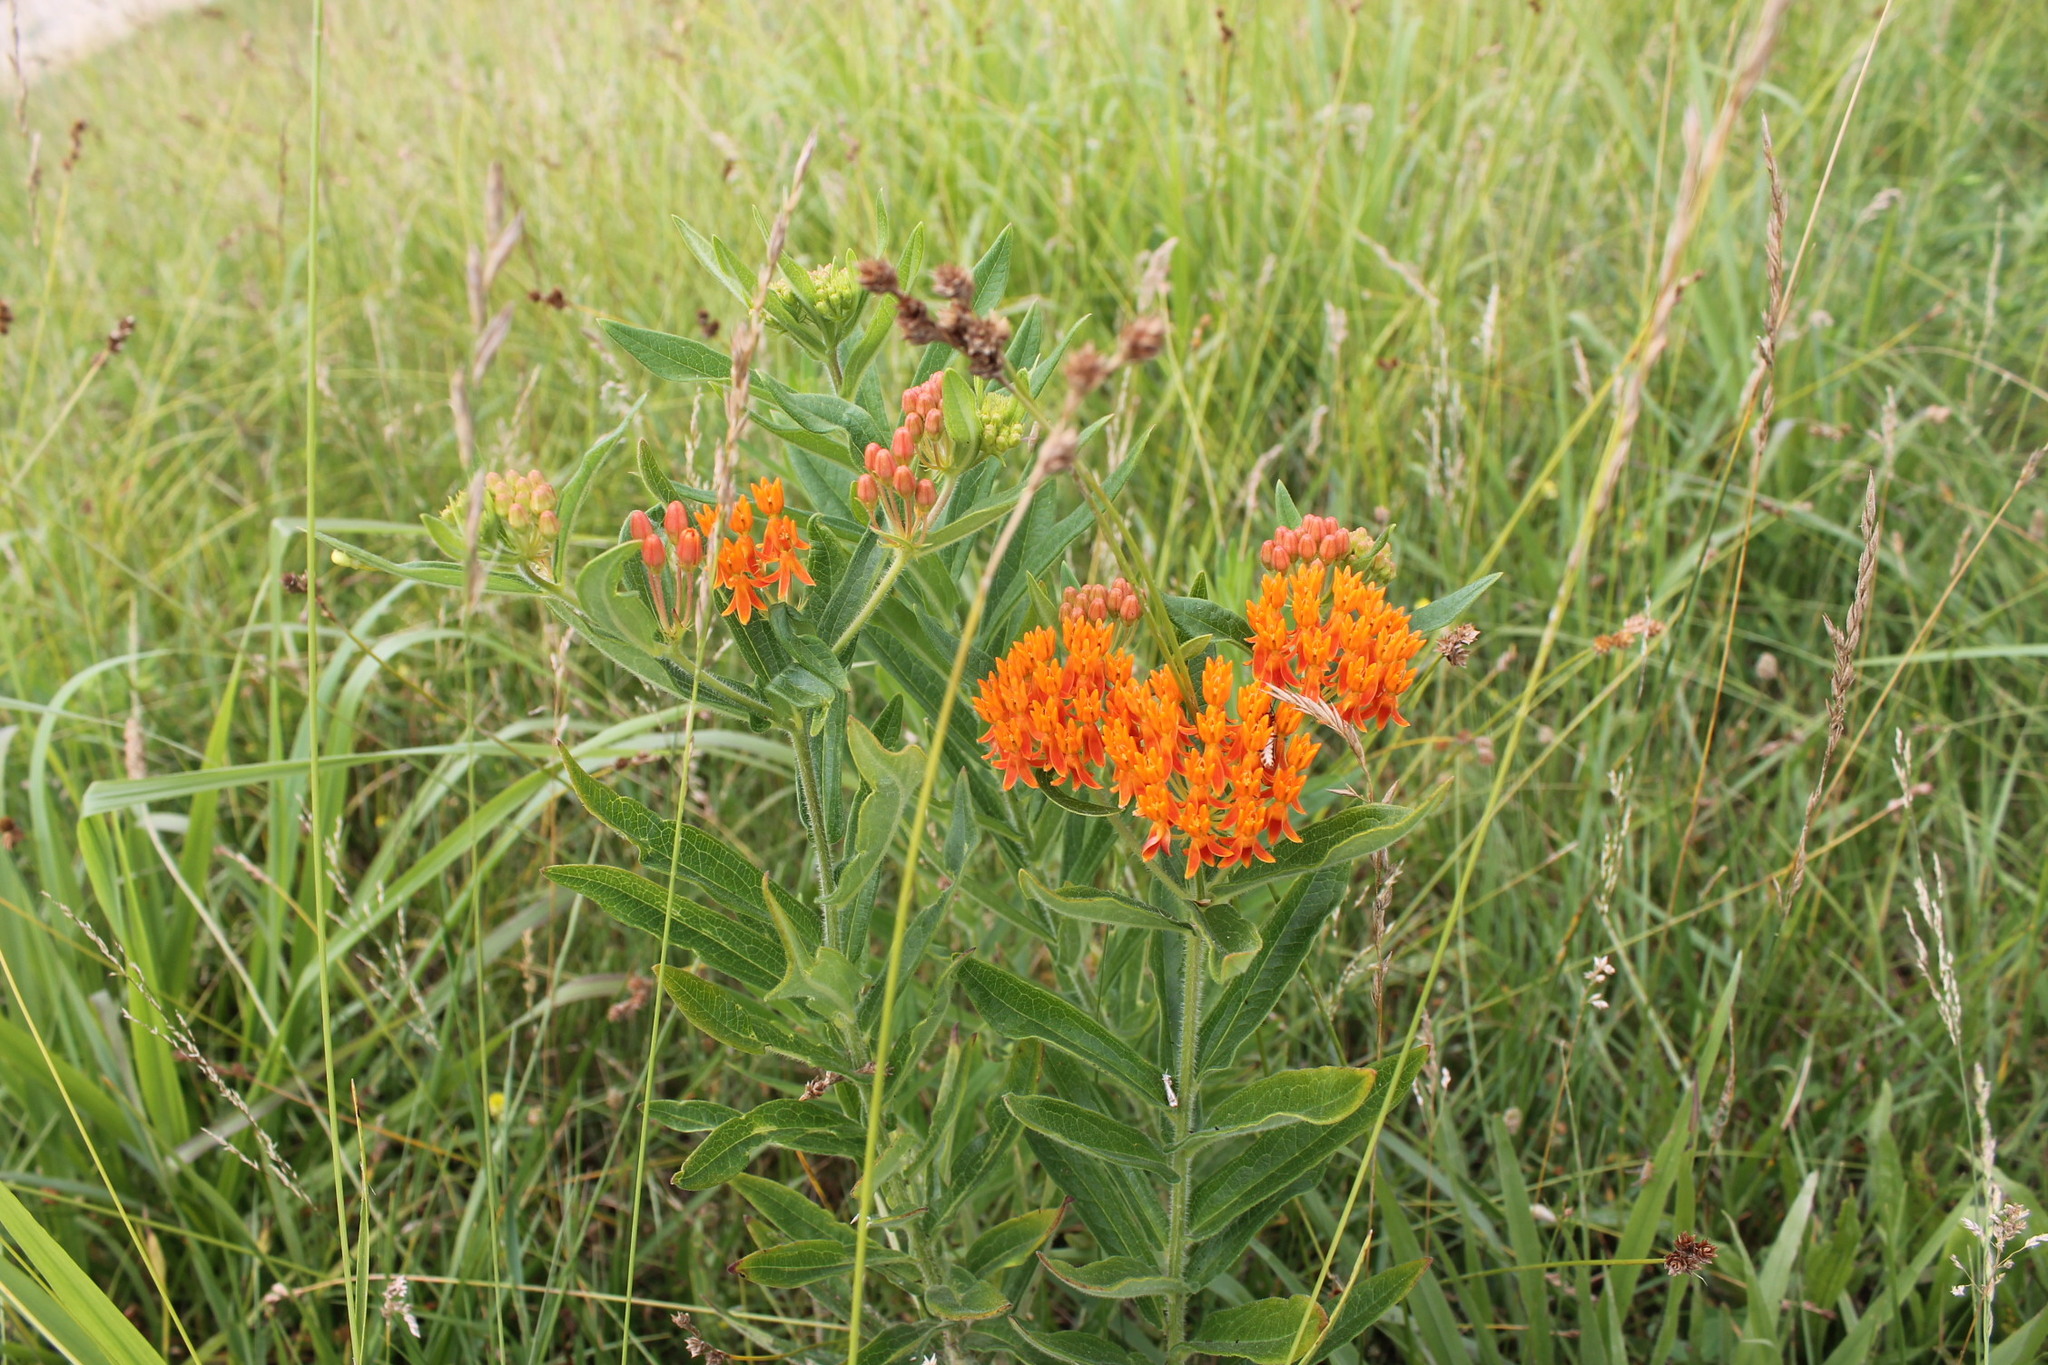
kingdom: Plantae
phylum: Tracheophyta
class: Magnoliopsida
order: Gentianales
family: Apocynaceae
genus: Asclepias
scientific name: Asclepias tuberosa
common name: Butterfly milkweed
